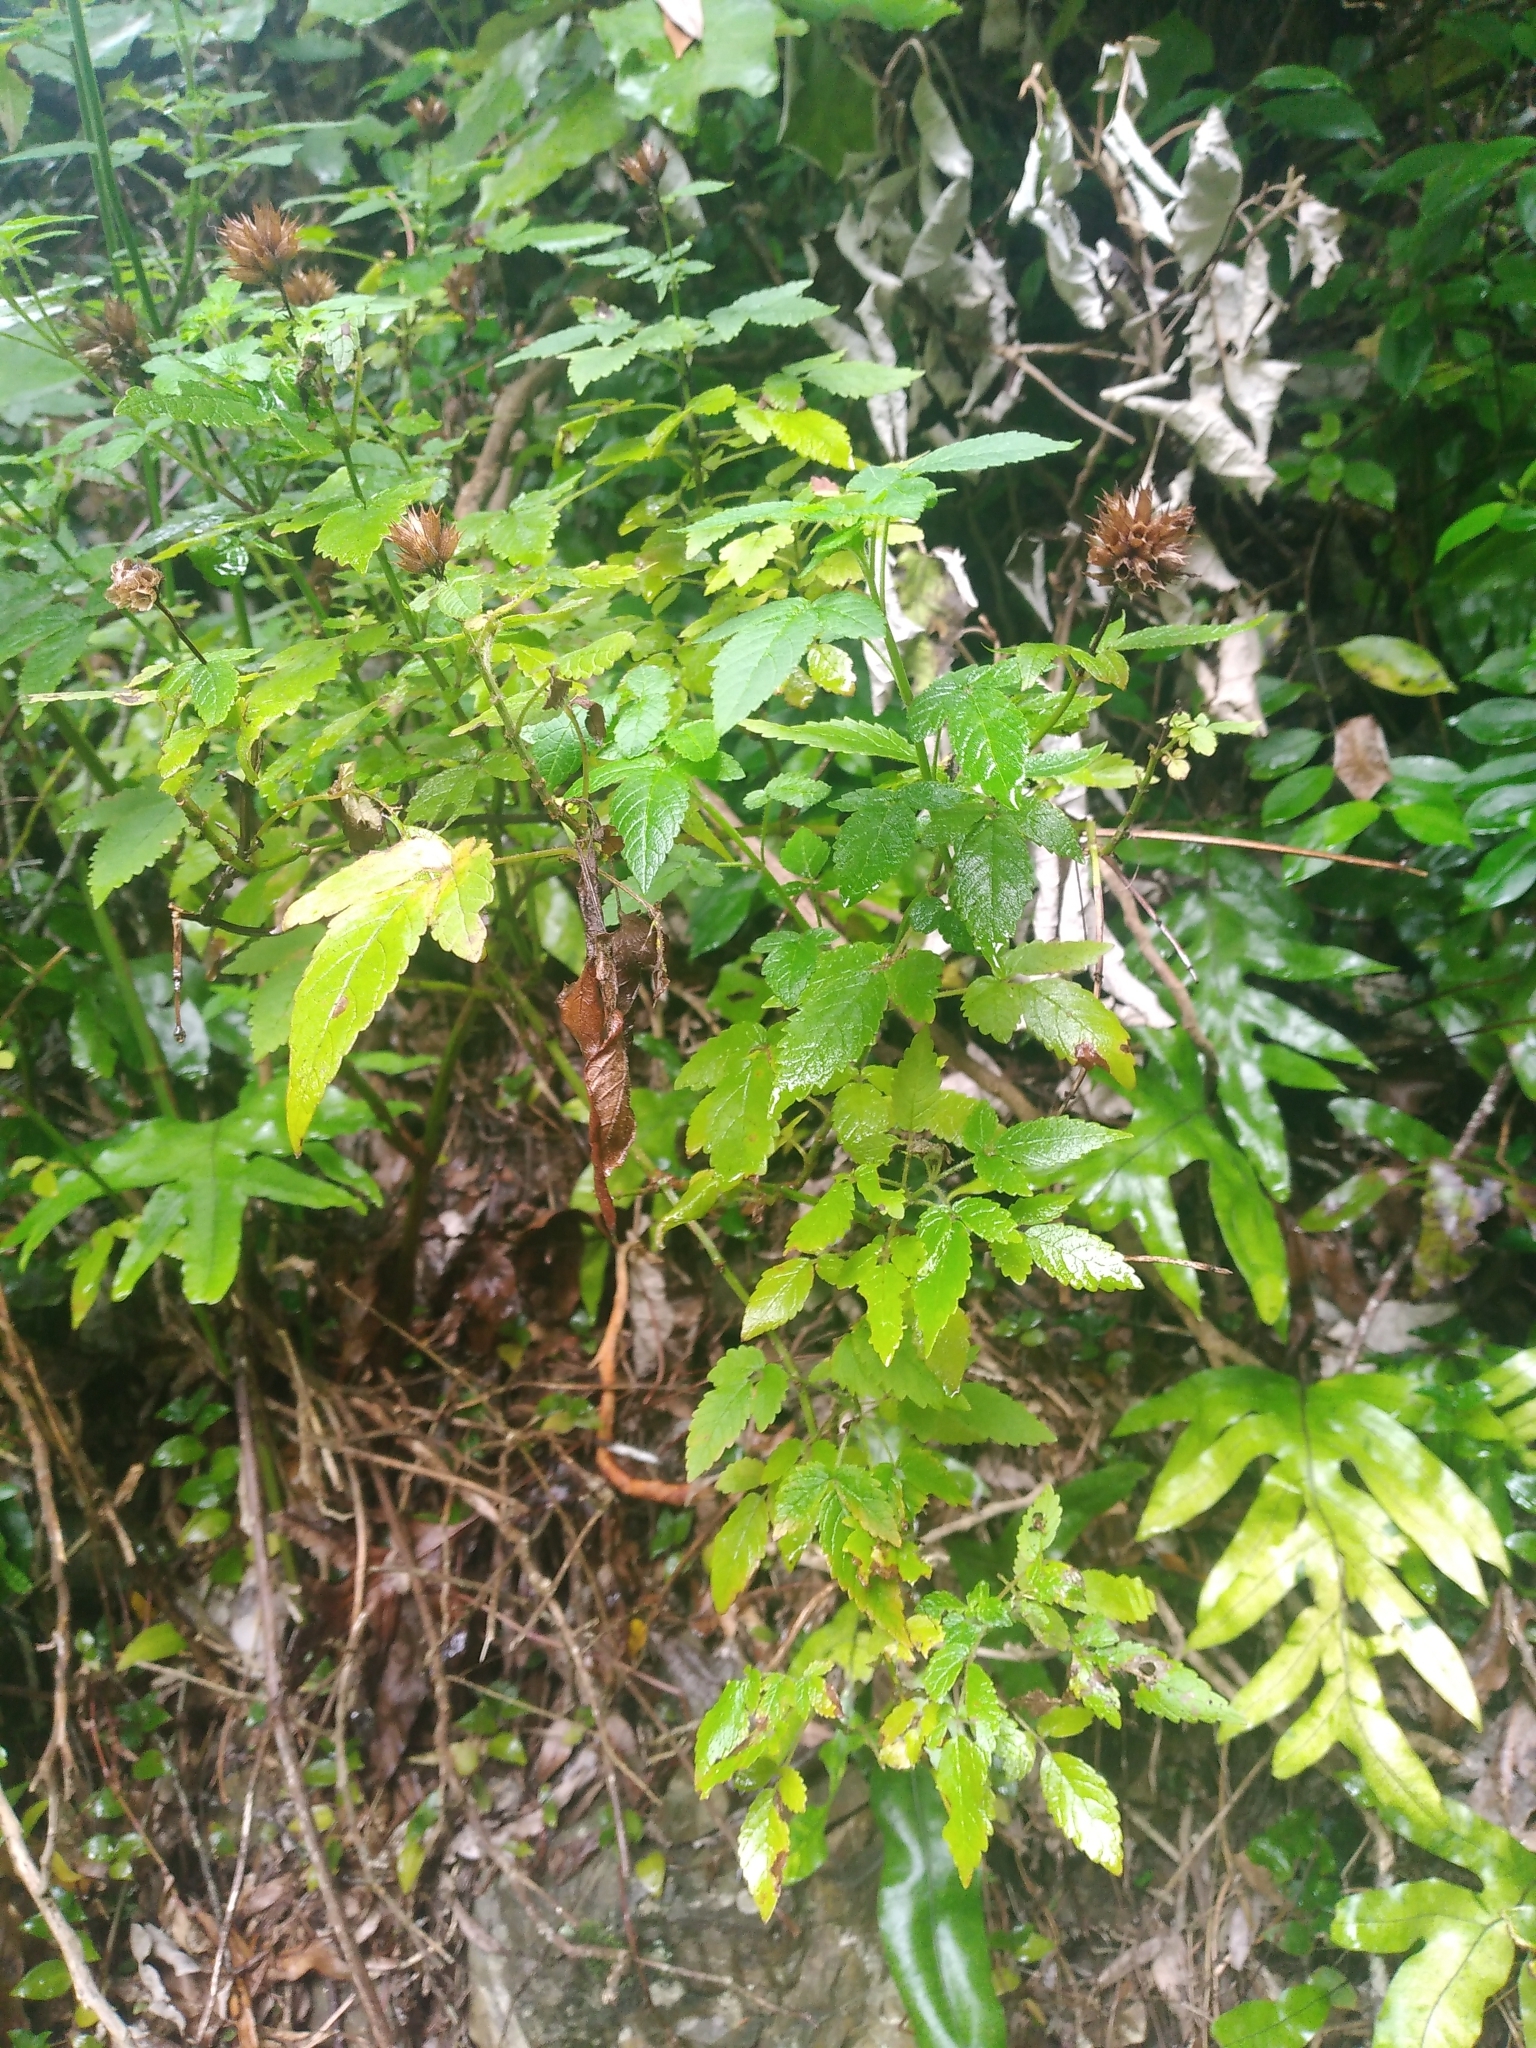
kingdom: Plantae
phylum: Tracheophyta
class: Magnoliopsida
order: Lamiales
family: Lamiaceae
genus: Cedronella
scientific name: Cedronella canariensis
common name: Canary islands balm
